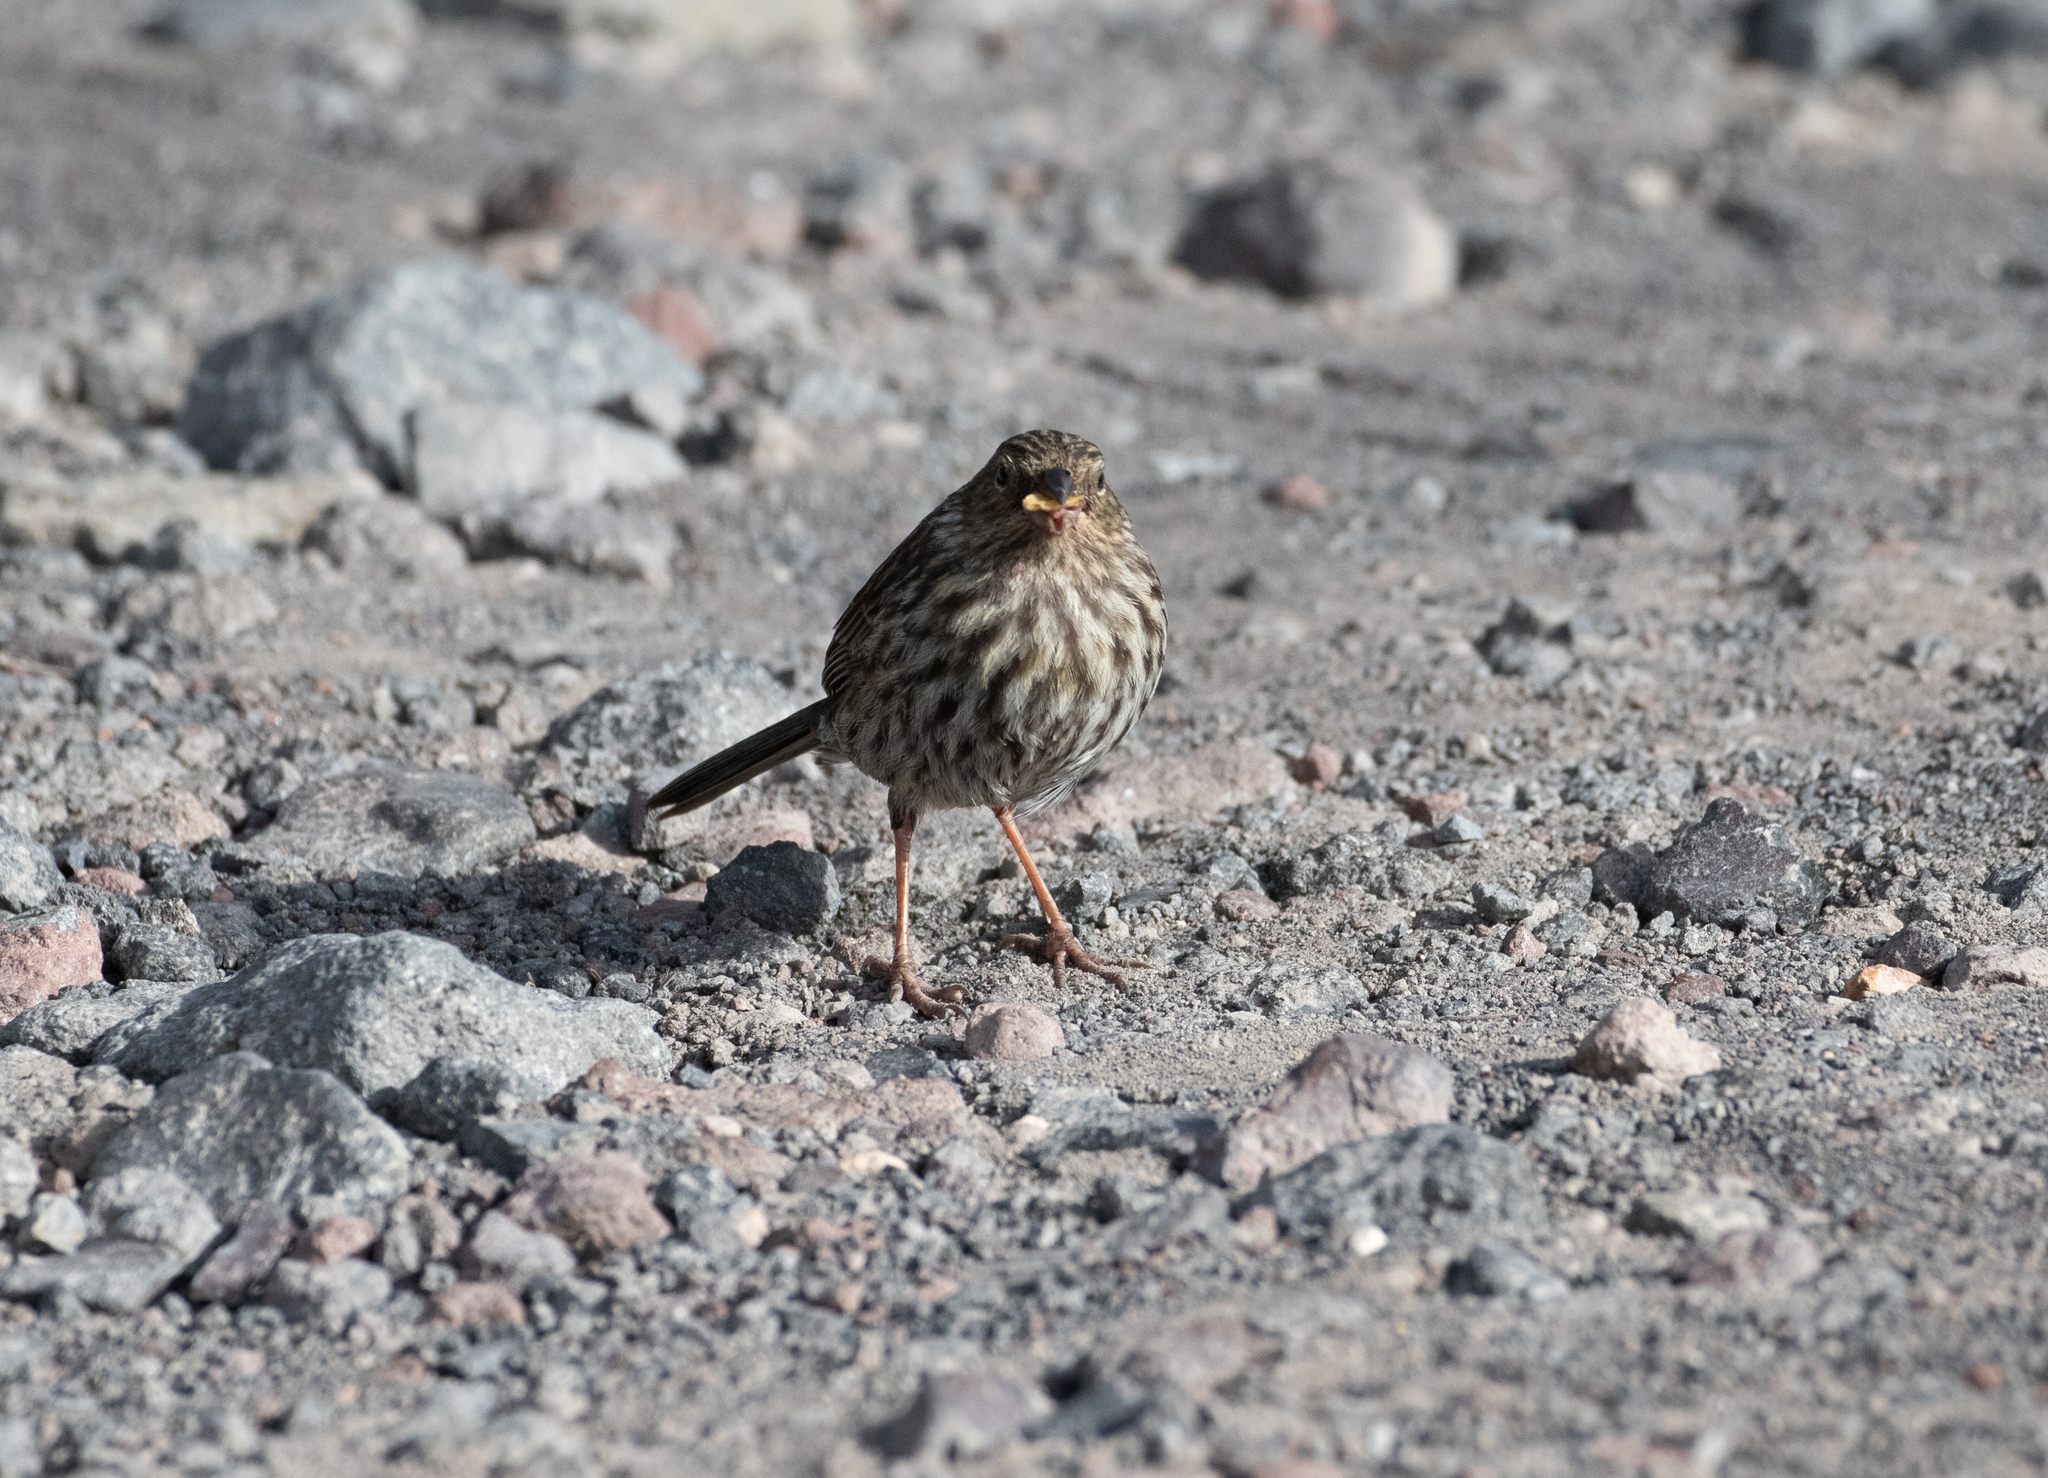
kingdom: Animalia
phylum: Chordata
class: Aves
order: Passeriformes
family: Thraupidae
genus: Geospizopsis
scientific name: Geospizopsis unicolor
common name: Plumbeous sierra-finch
